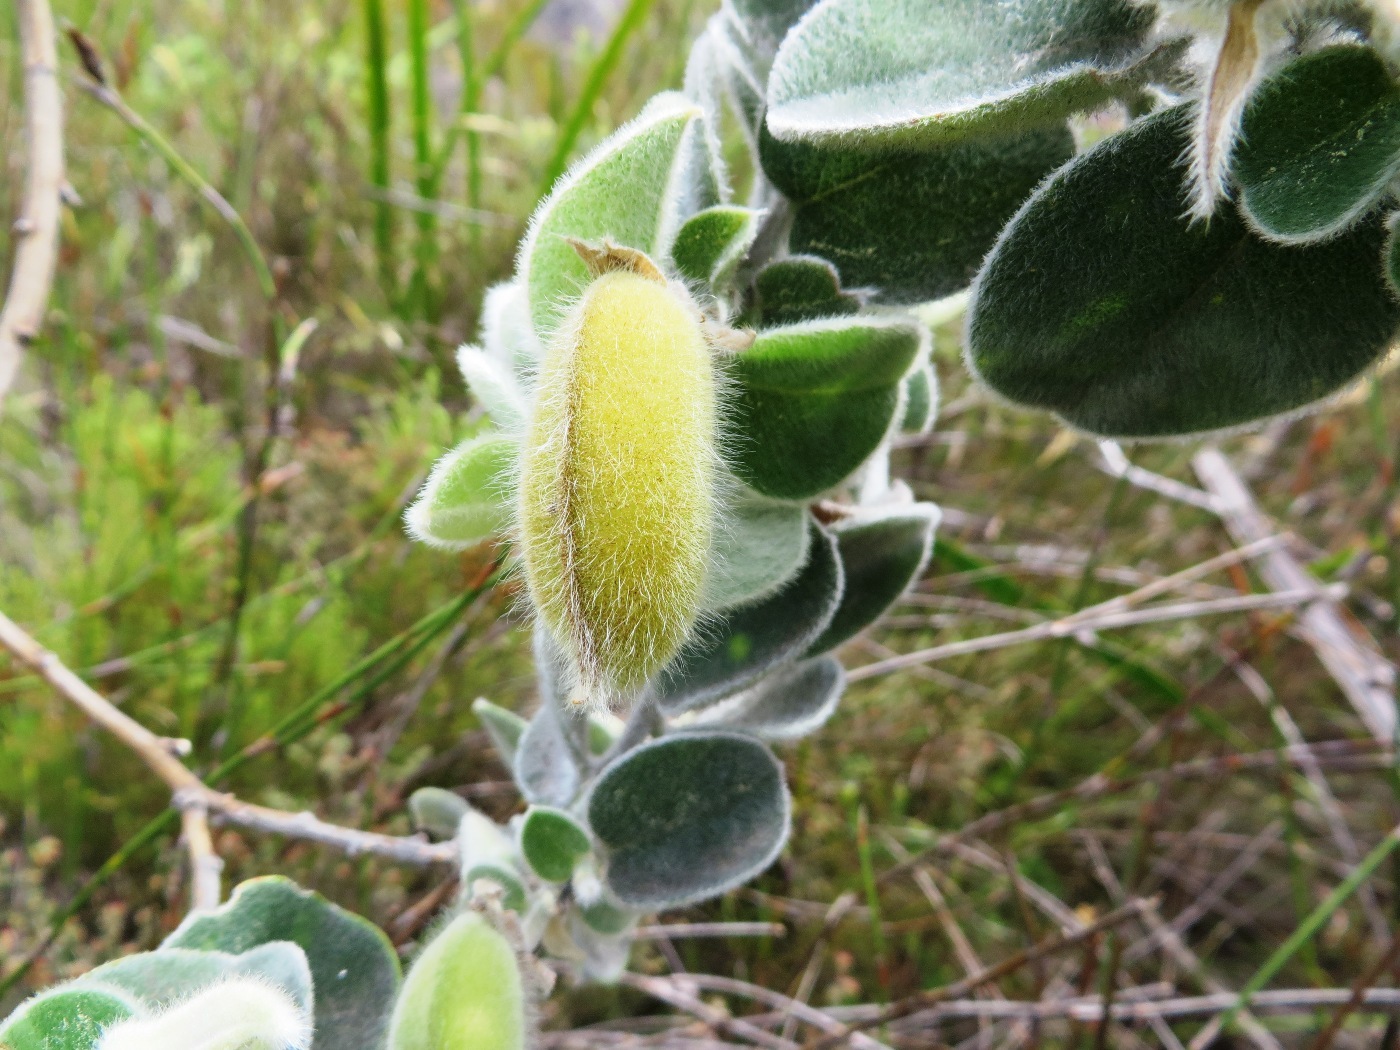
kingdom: Plantae
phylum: Tracheophyta
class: Magnoliopsida
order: Fabales
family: Fabaceae
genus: Podalyria
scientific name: Podalyria hirsuta
